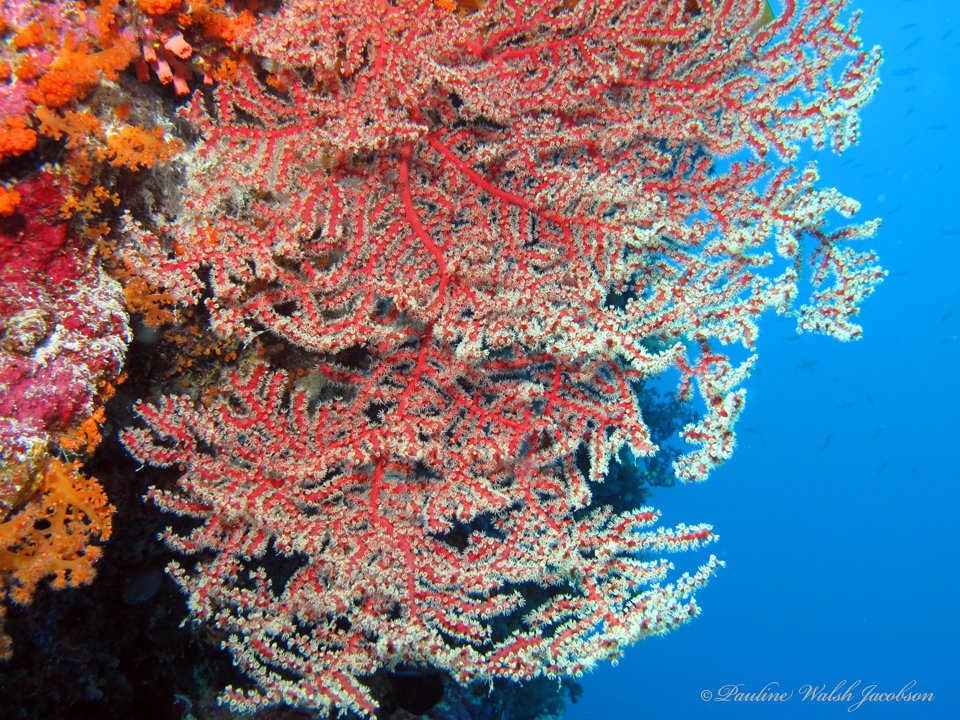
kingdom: Animalia
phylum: Cnidaria
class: Anthozoa
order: Malacalcyonacea
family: Astrogorgiidae
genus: Astrogorgia
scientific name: Astrogorgia dumbea
